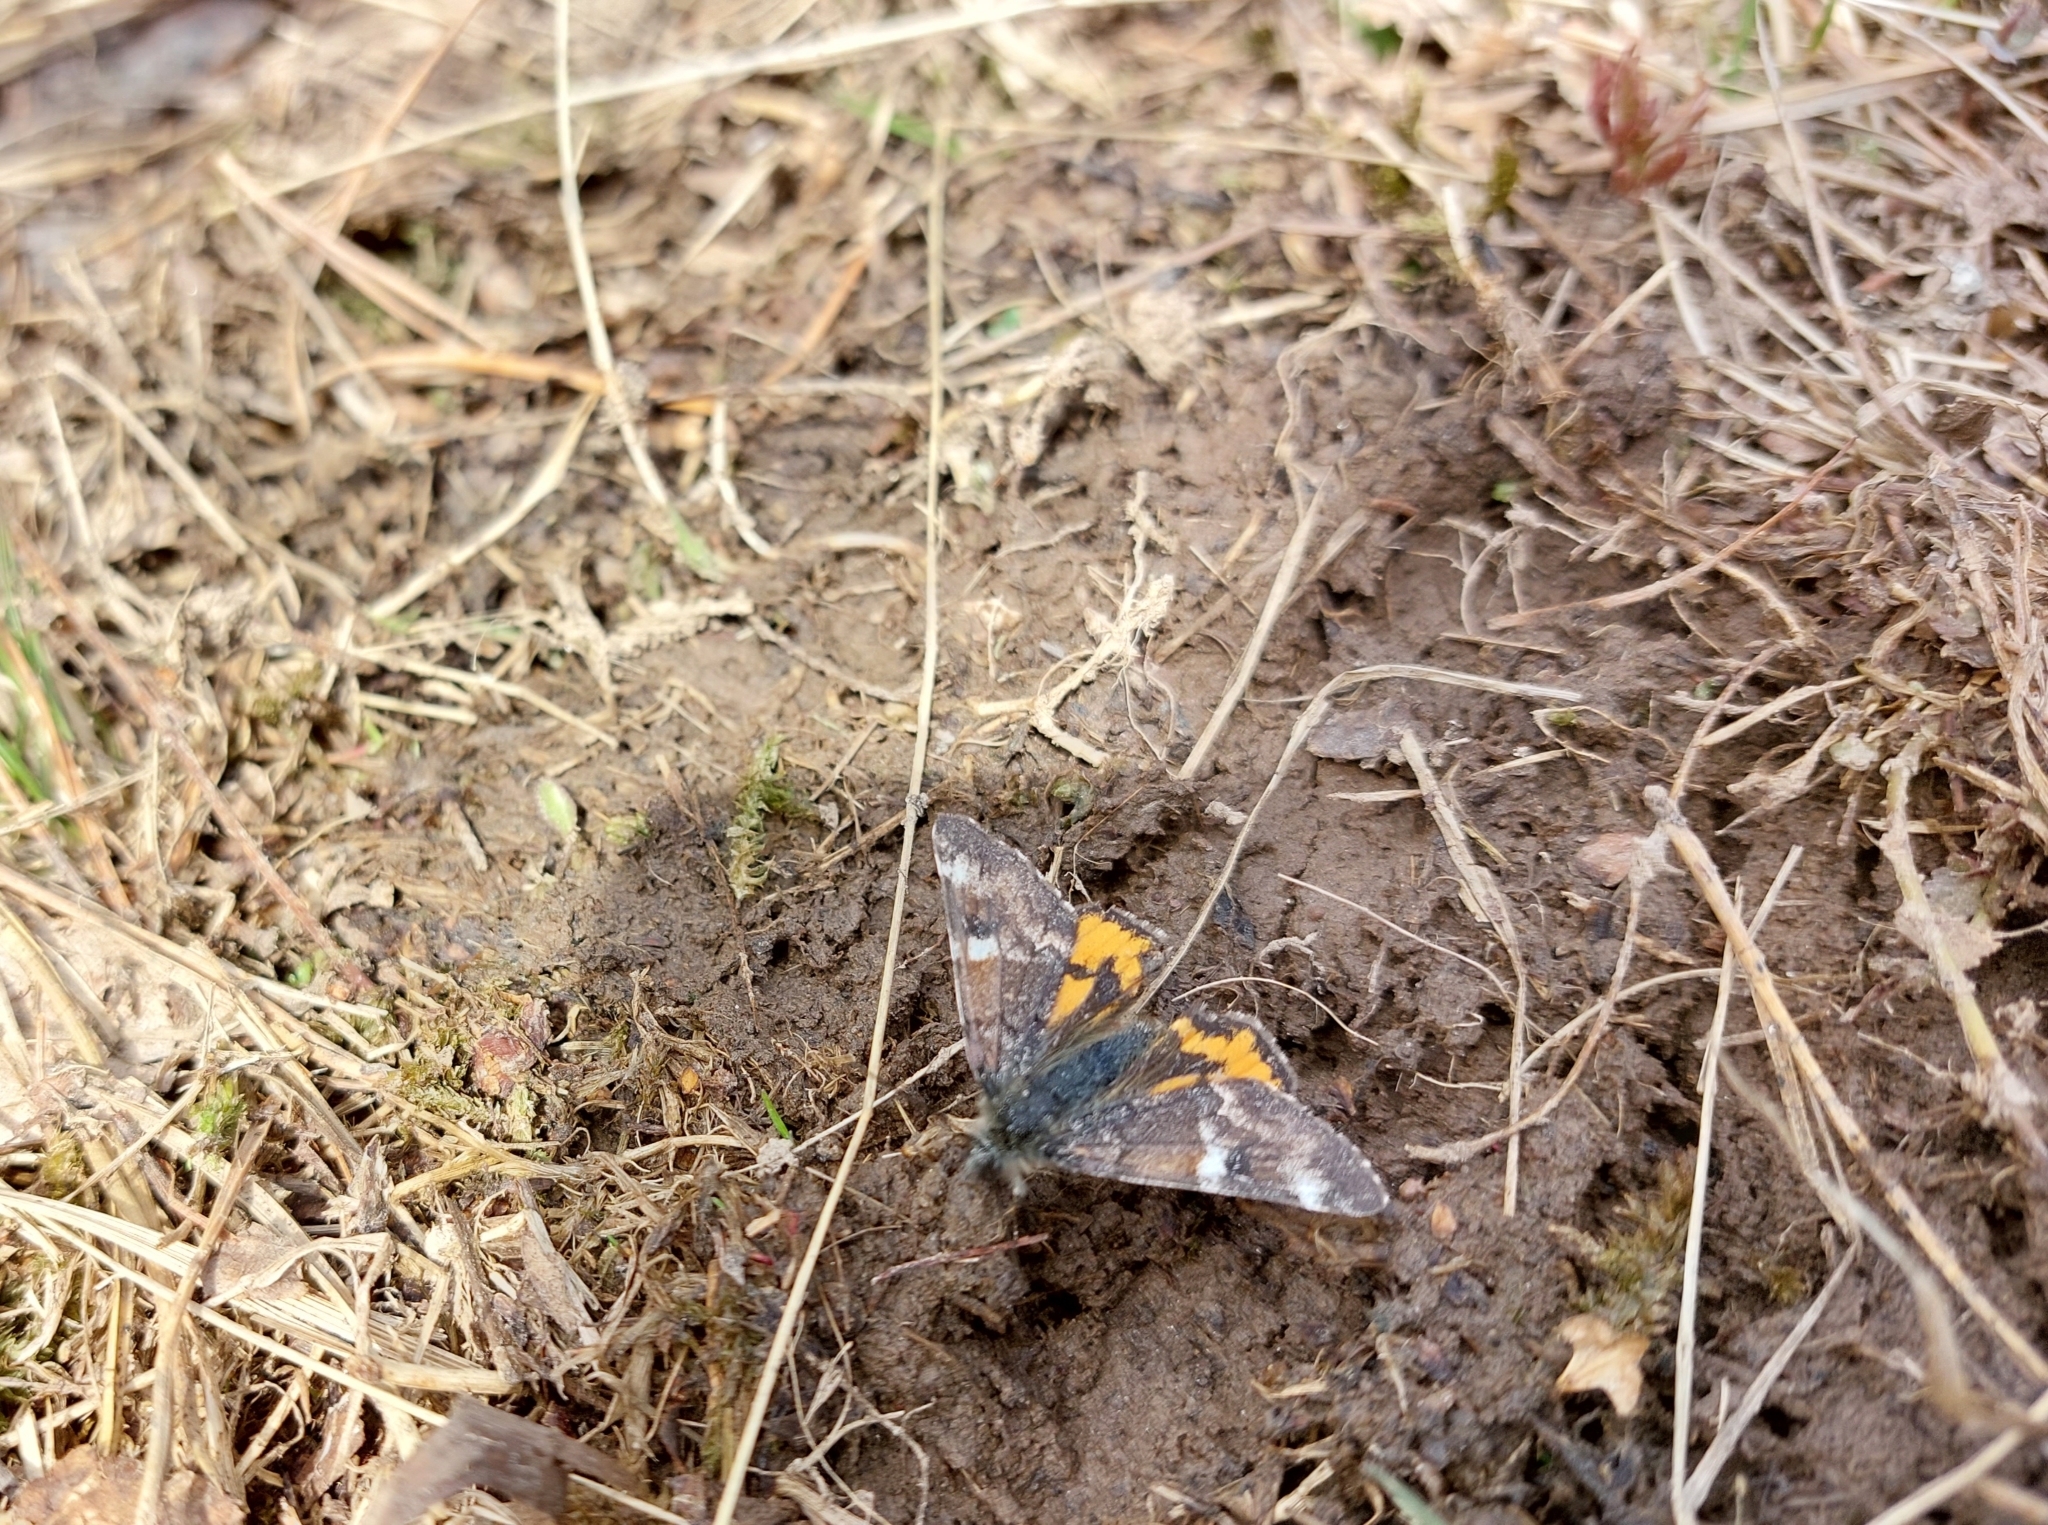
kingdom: Animalia
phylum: Arthropoda
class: Insecta
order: Lepidoptera
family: Geometridae
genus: Archiearis
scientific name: Archiearis parthenias
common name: Orange underwing
